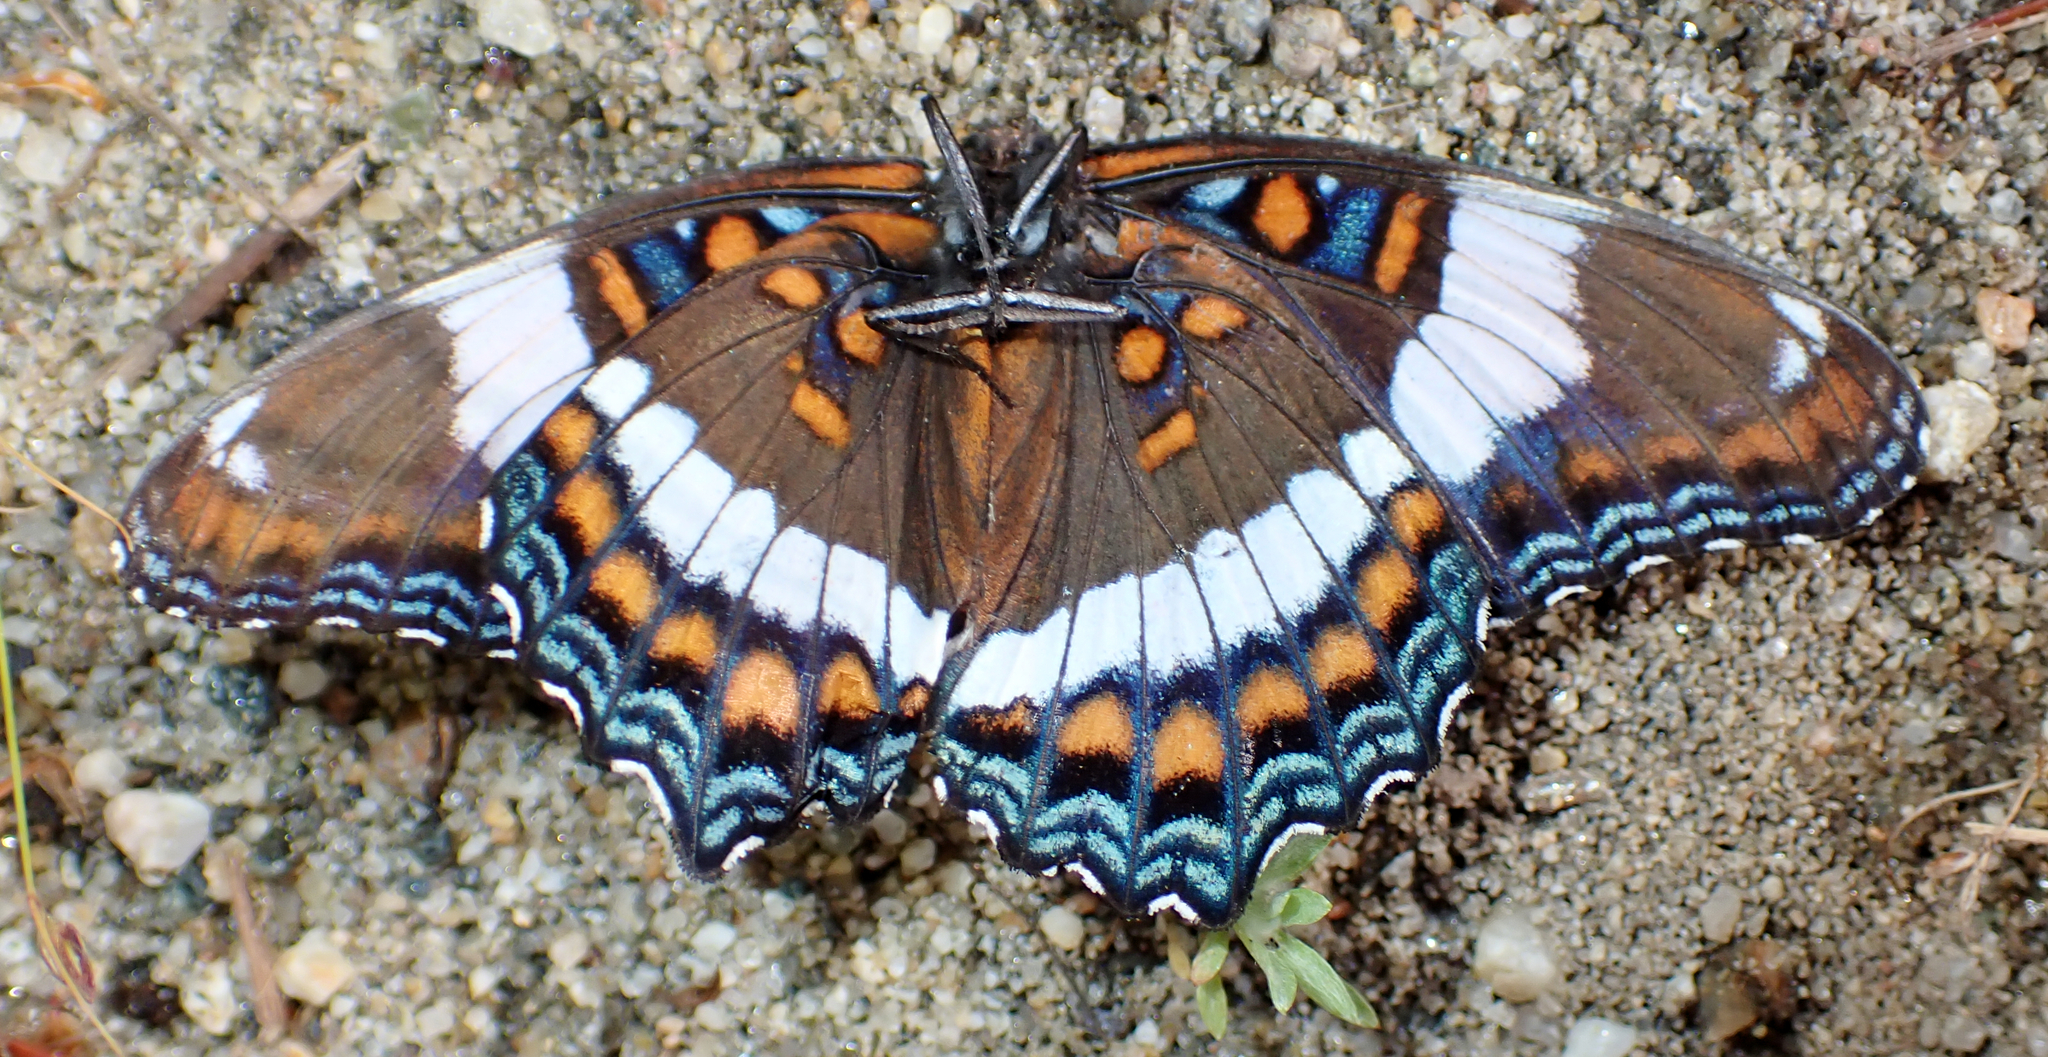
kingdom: Animalia
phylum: Arthropoda
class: Insecta
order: Lepidoptera
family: Nymphalidae
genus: Limenitis
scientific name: Limenitis arthemis
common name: Red-spotted admiral
